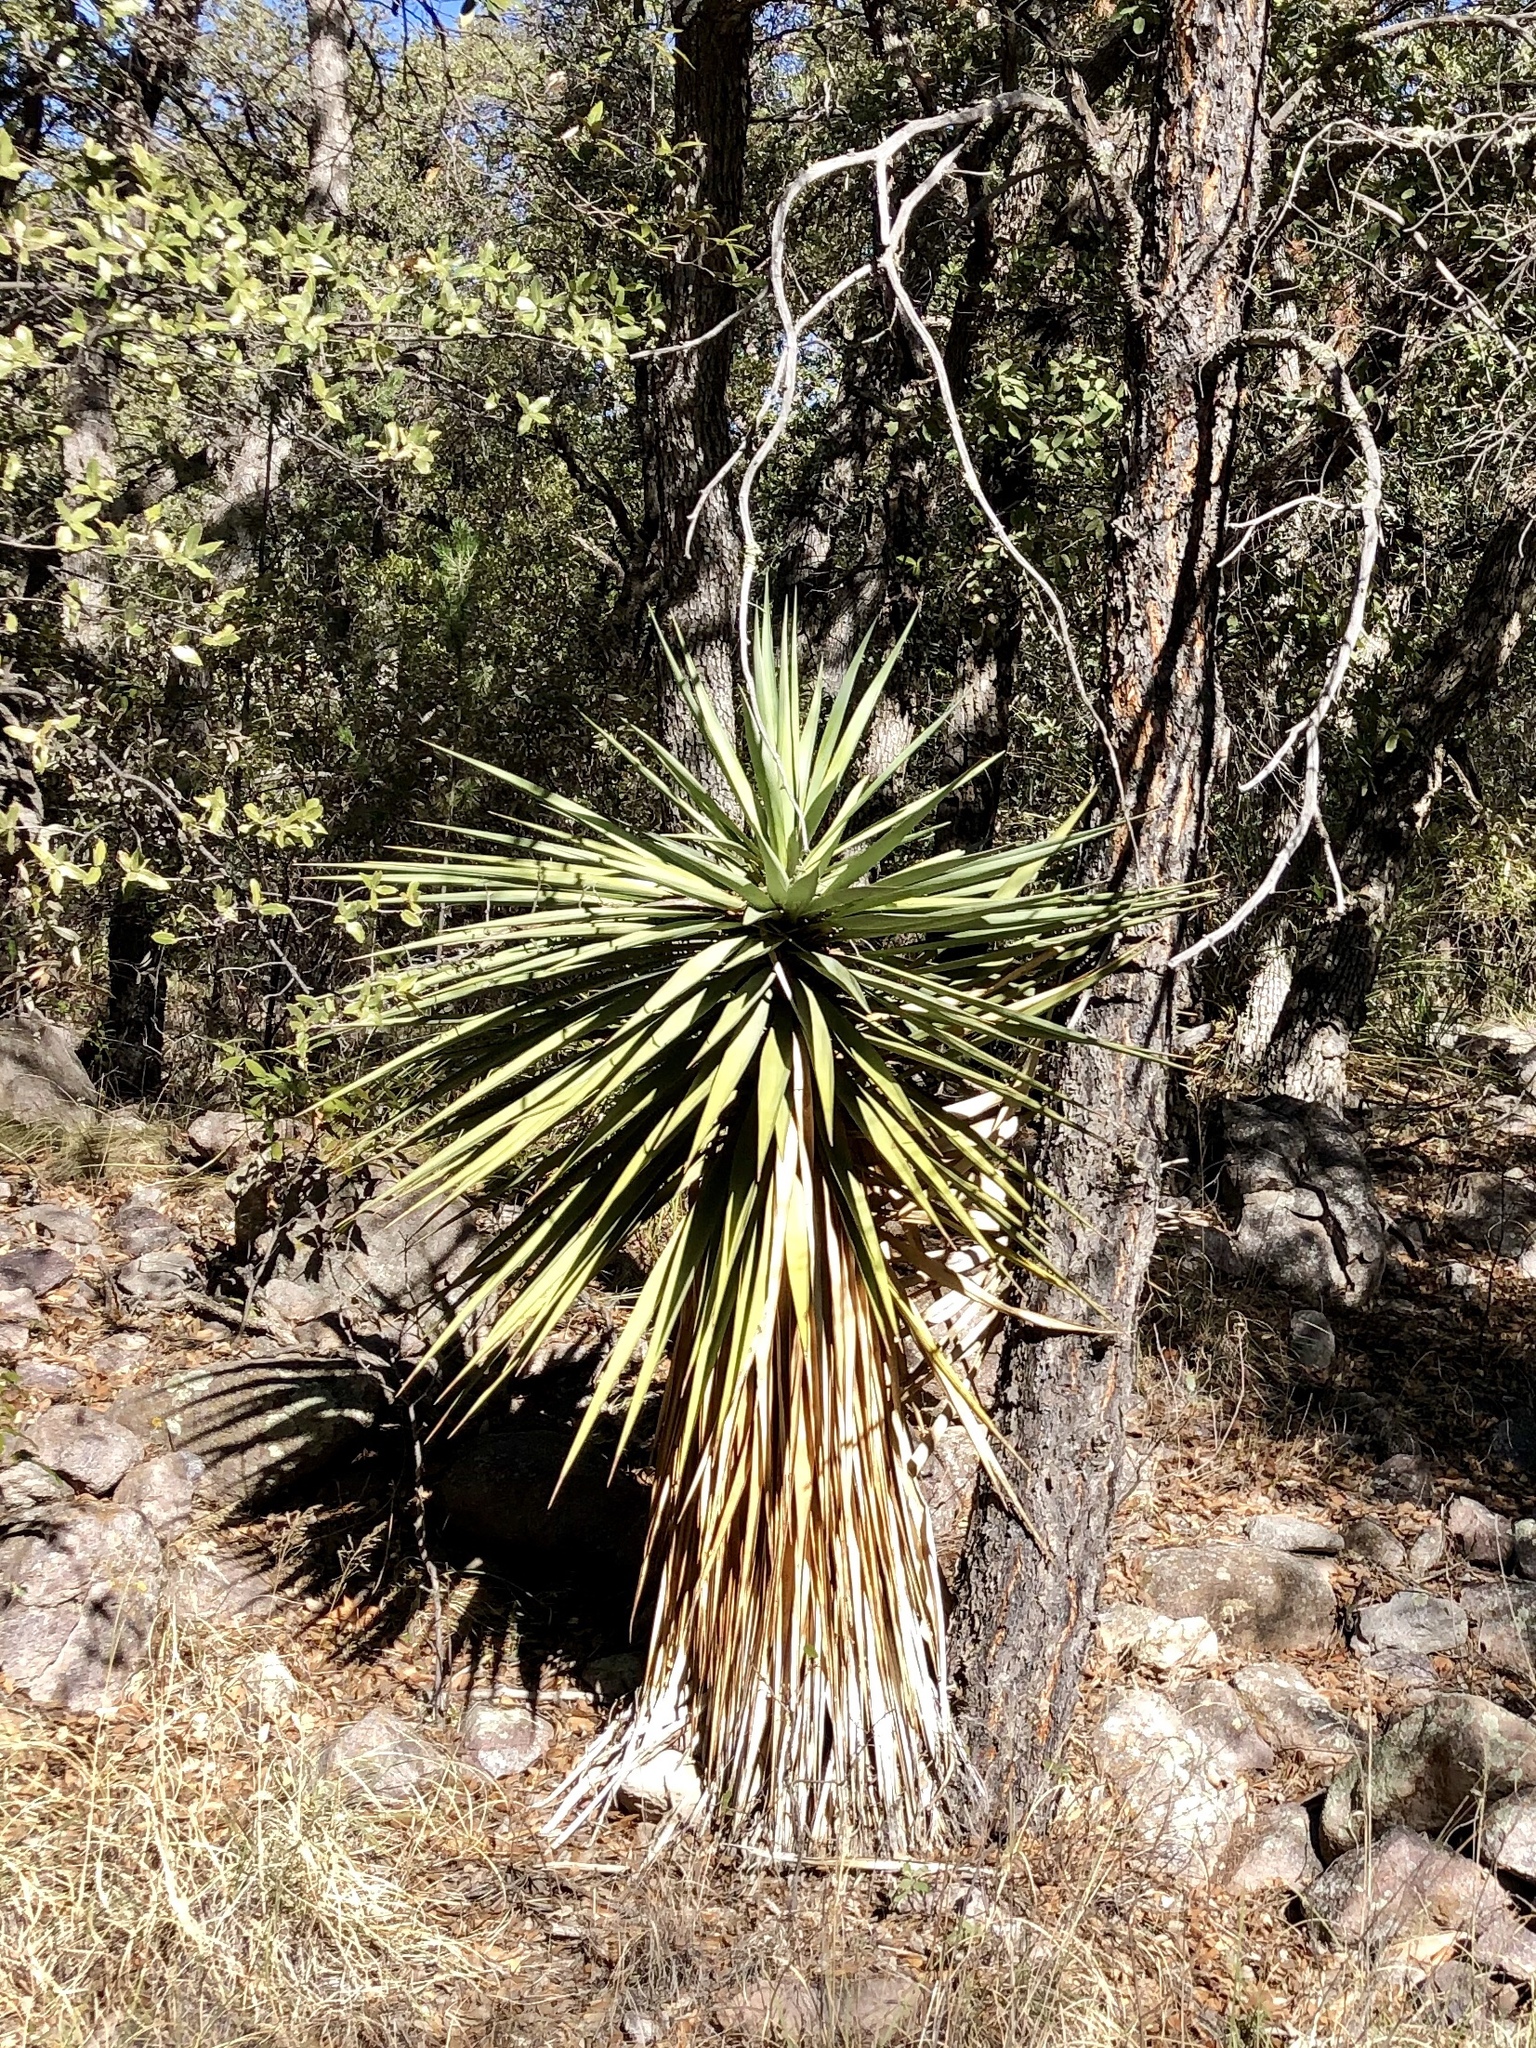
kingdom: Plantae
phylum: Tracheophyta
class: Liliopsida
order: Asparagales
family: Asparagaceae
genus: Yucca
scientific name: Yucca madrensis
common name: Hoary yucca
